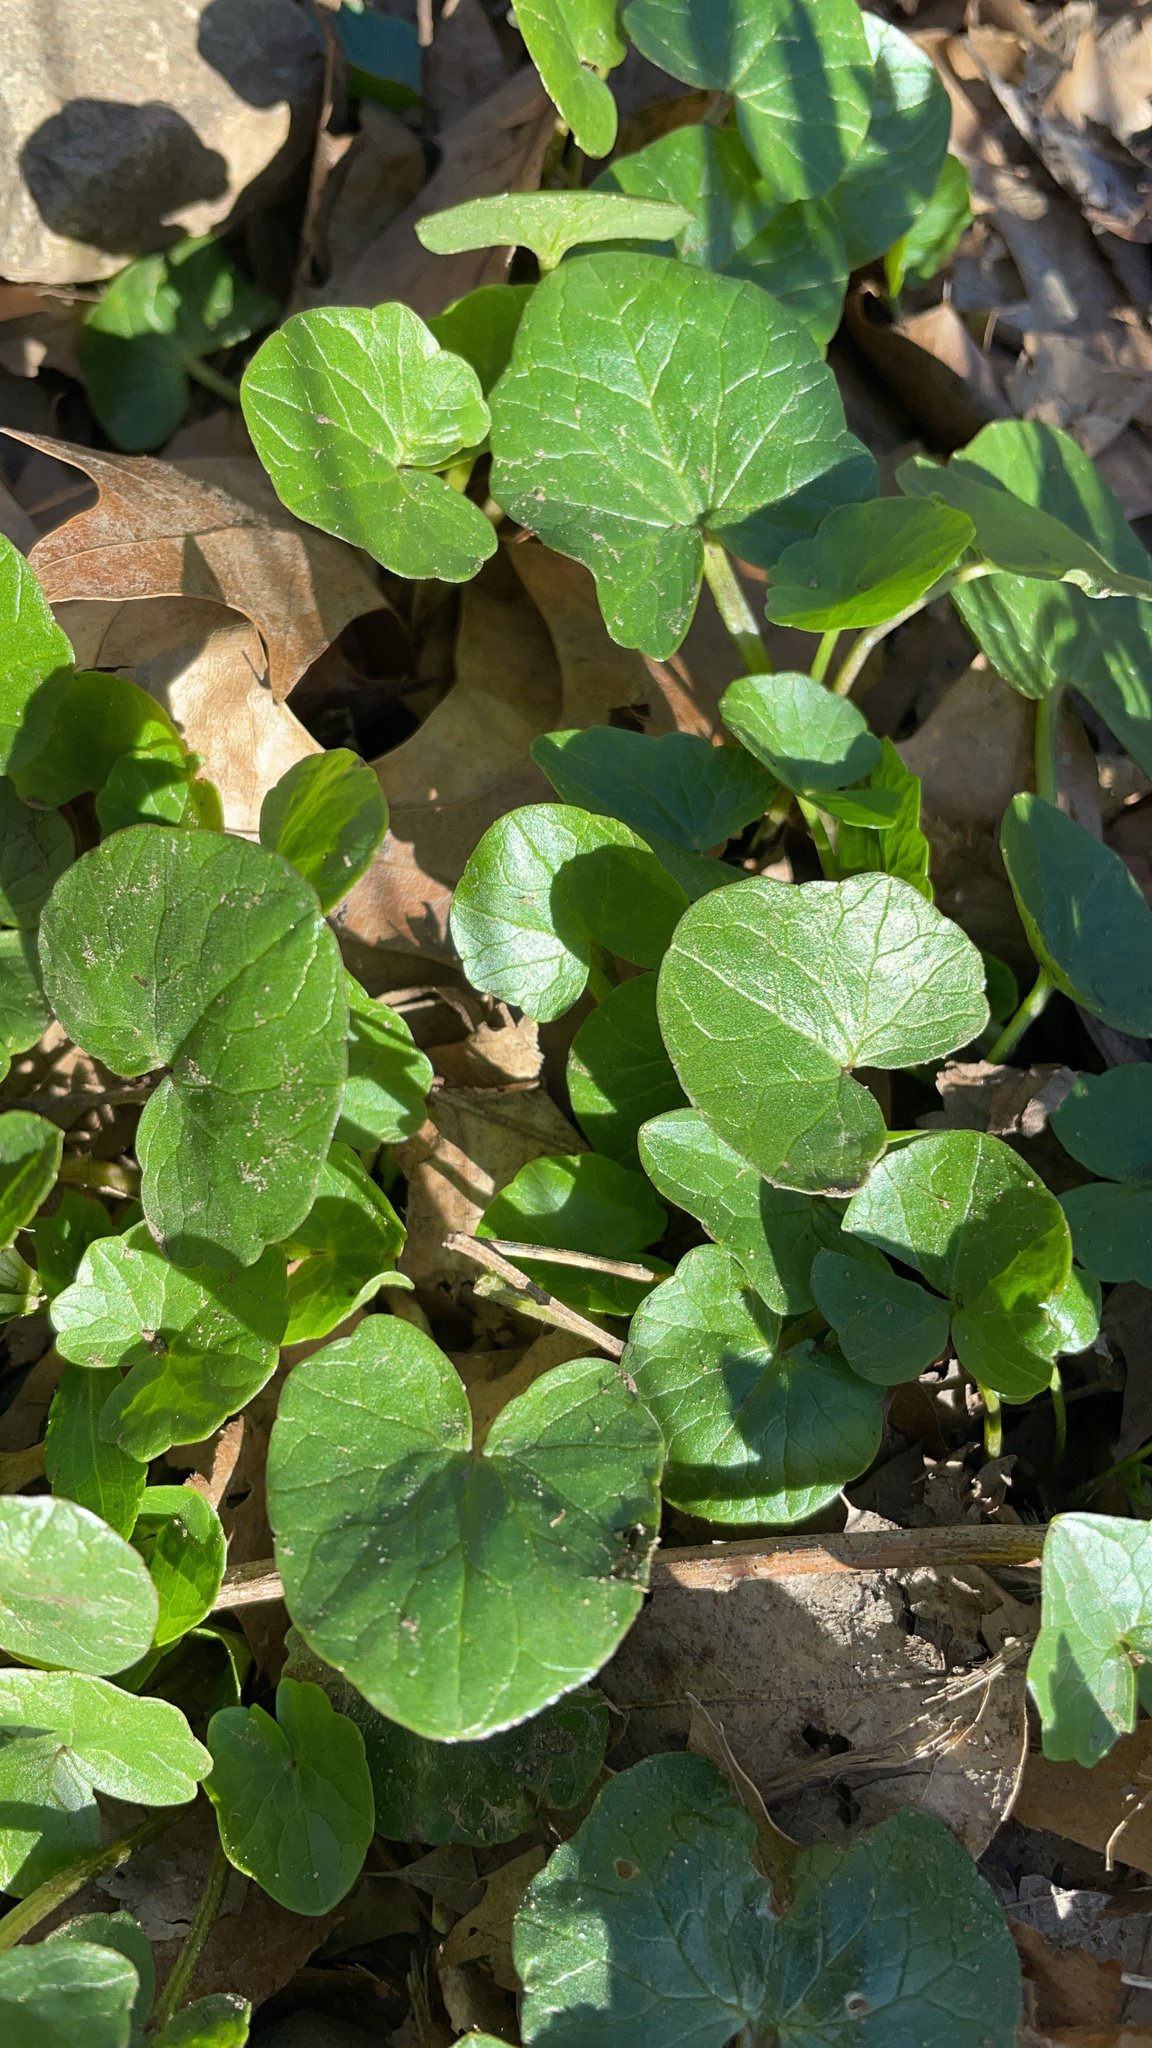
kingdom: Plantae
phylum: Tracheophyta
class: Magnoliopsida
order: Ranunculales
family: Ranunculaceae
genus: Ficaria
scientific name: Ficaria verna
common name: Lesser celandine
